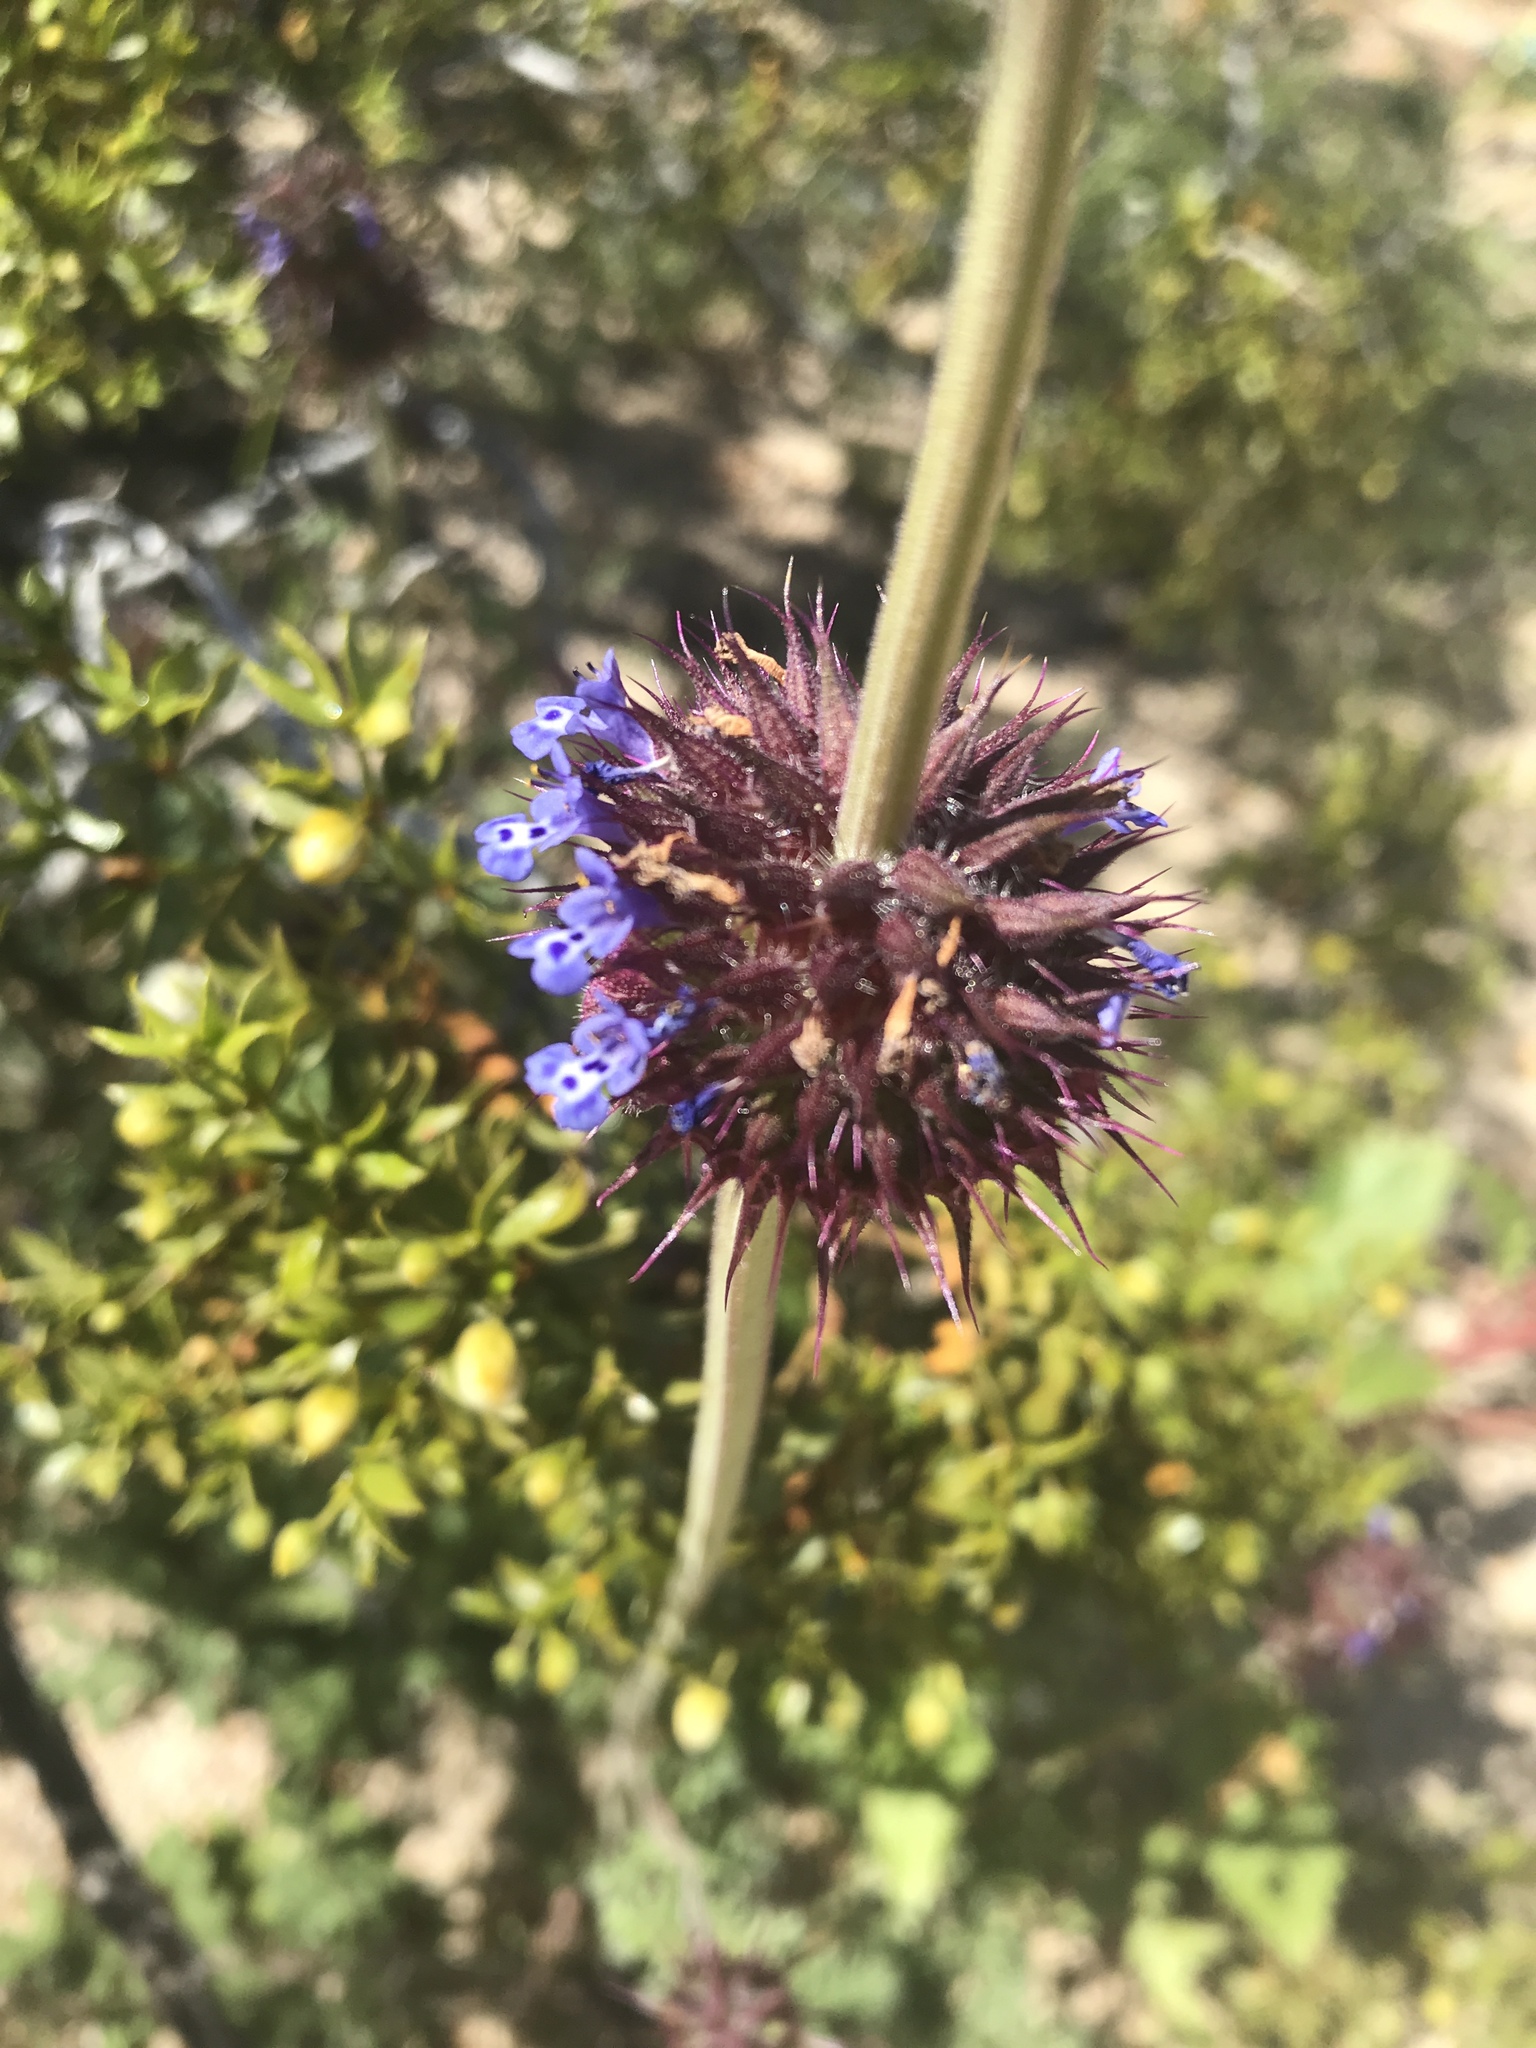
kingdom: Plantae
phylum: Tracheophyta
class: Magnoliopsida
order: Lamiales
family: Lamiaceae
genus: Salvia
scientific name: Salvia columbariae
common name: Chia
